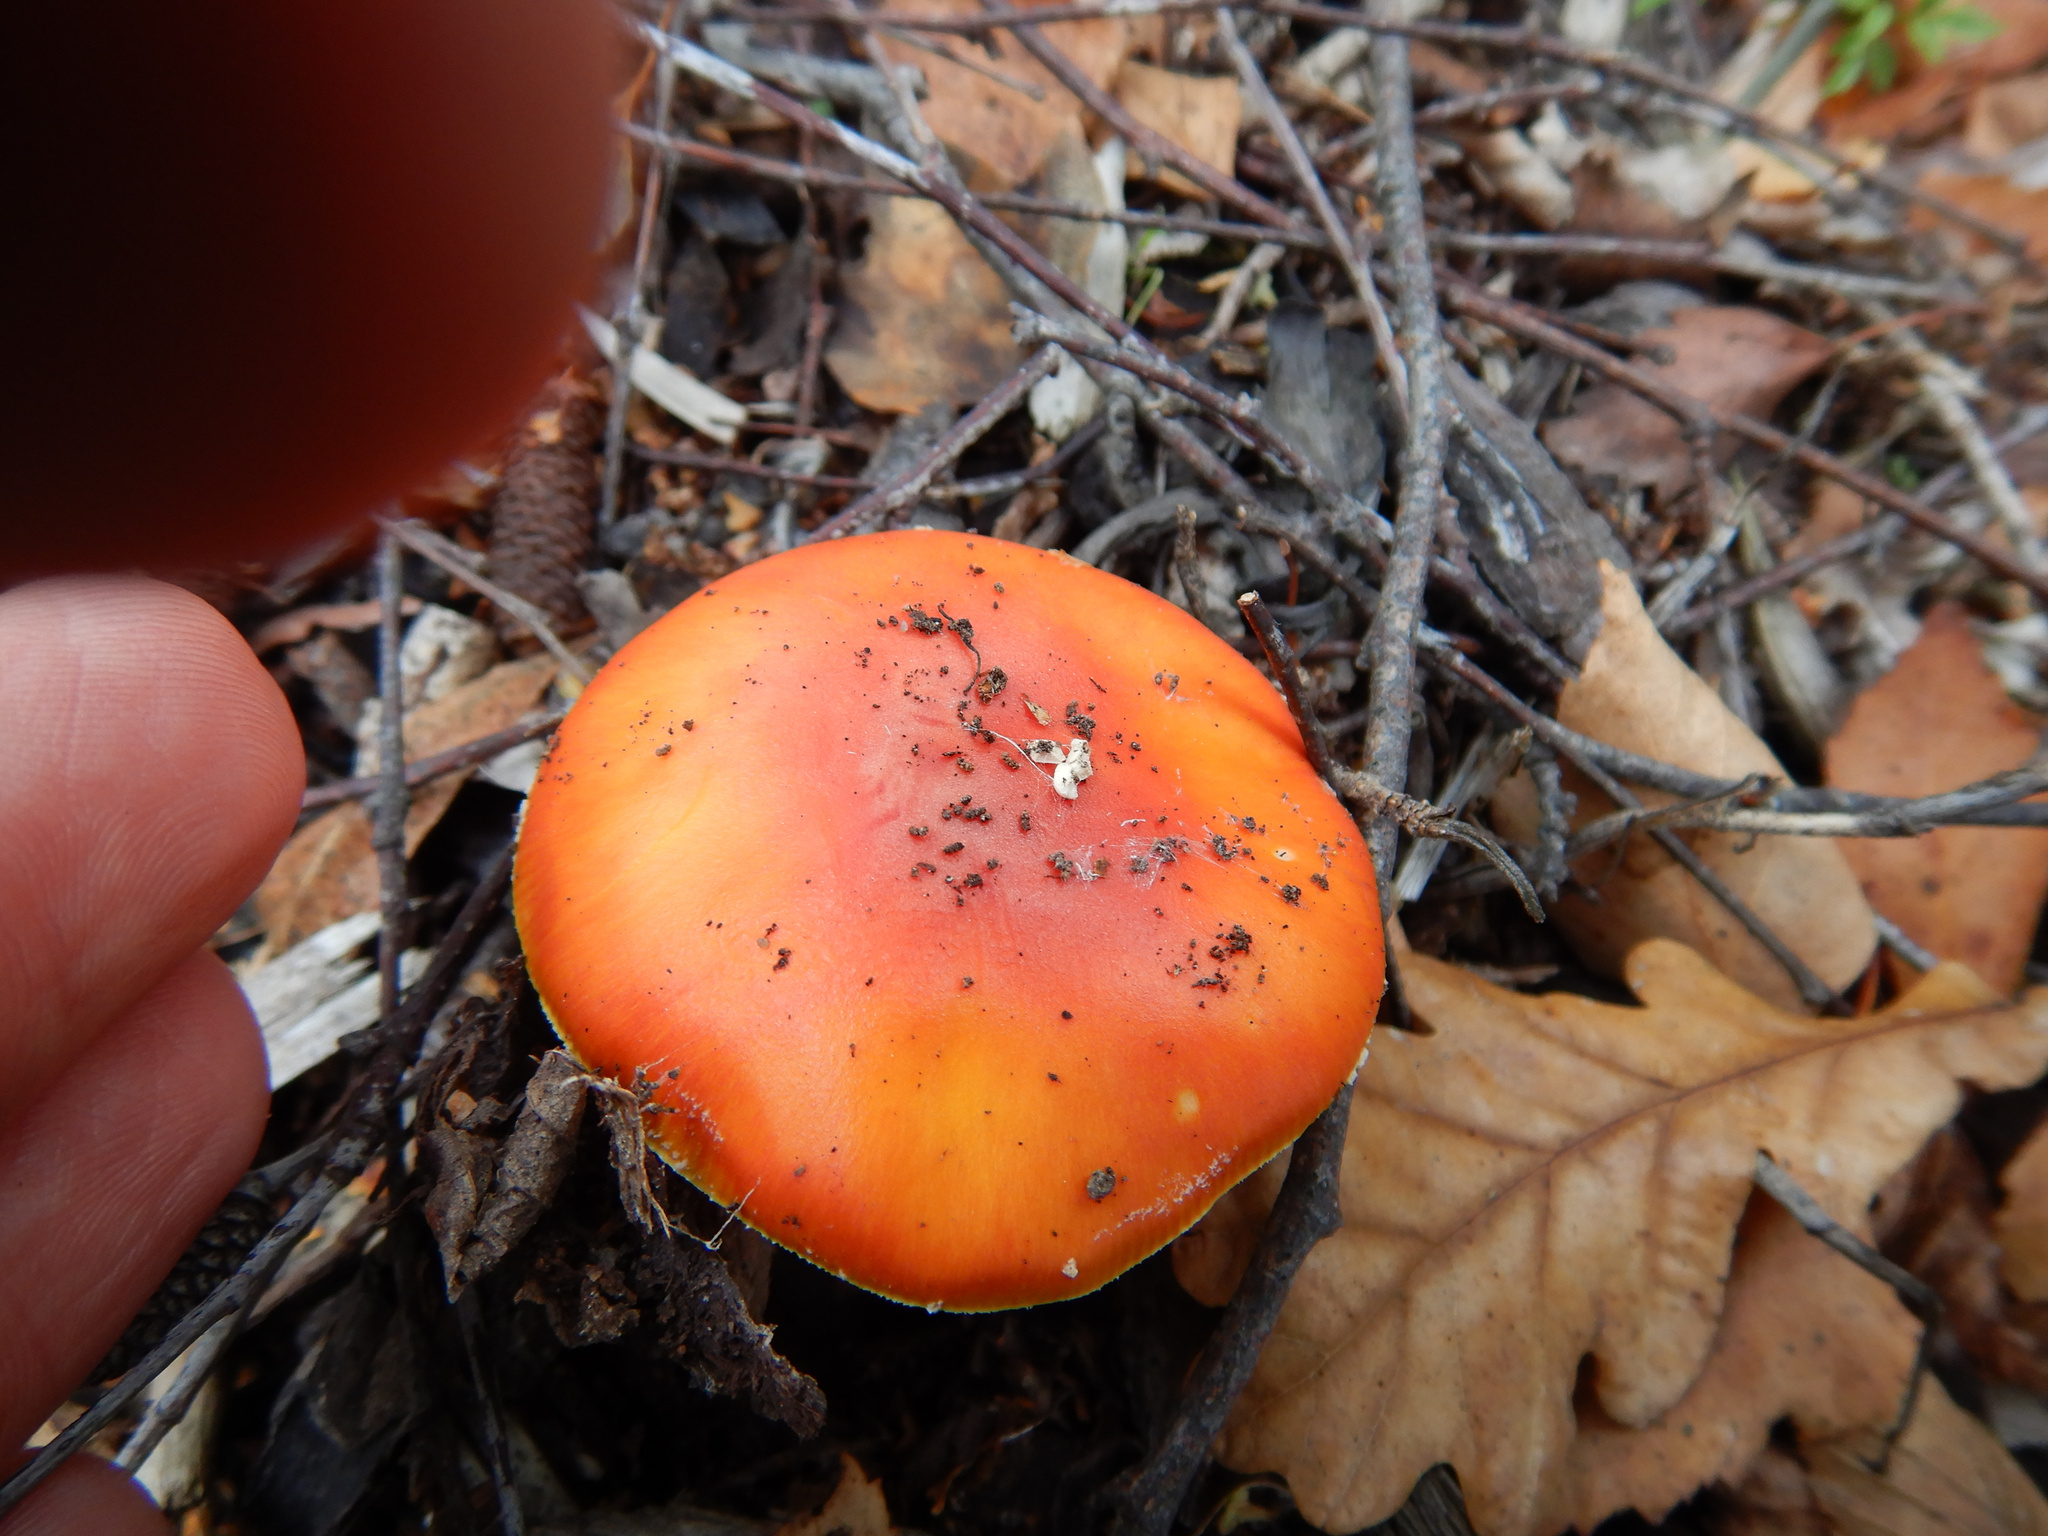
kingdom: Fungi
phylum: Basidiomycota
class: Agaricomycetes
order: Agaricales
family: Amanitaceae
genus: Amanita
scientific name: Amanita muscaria
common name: Fly agaric
